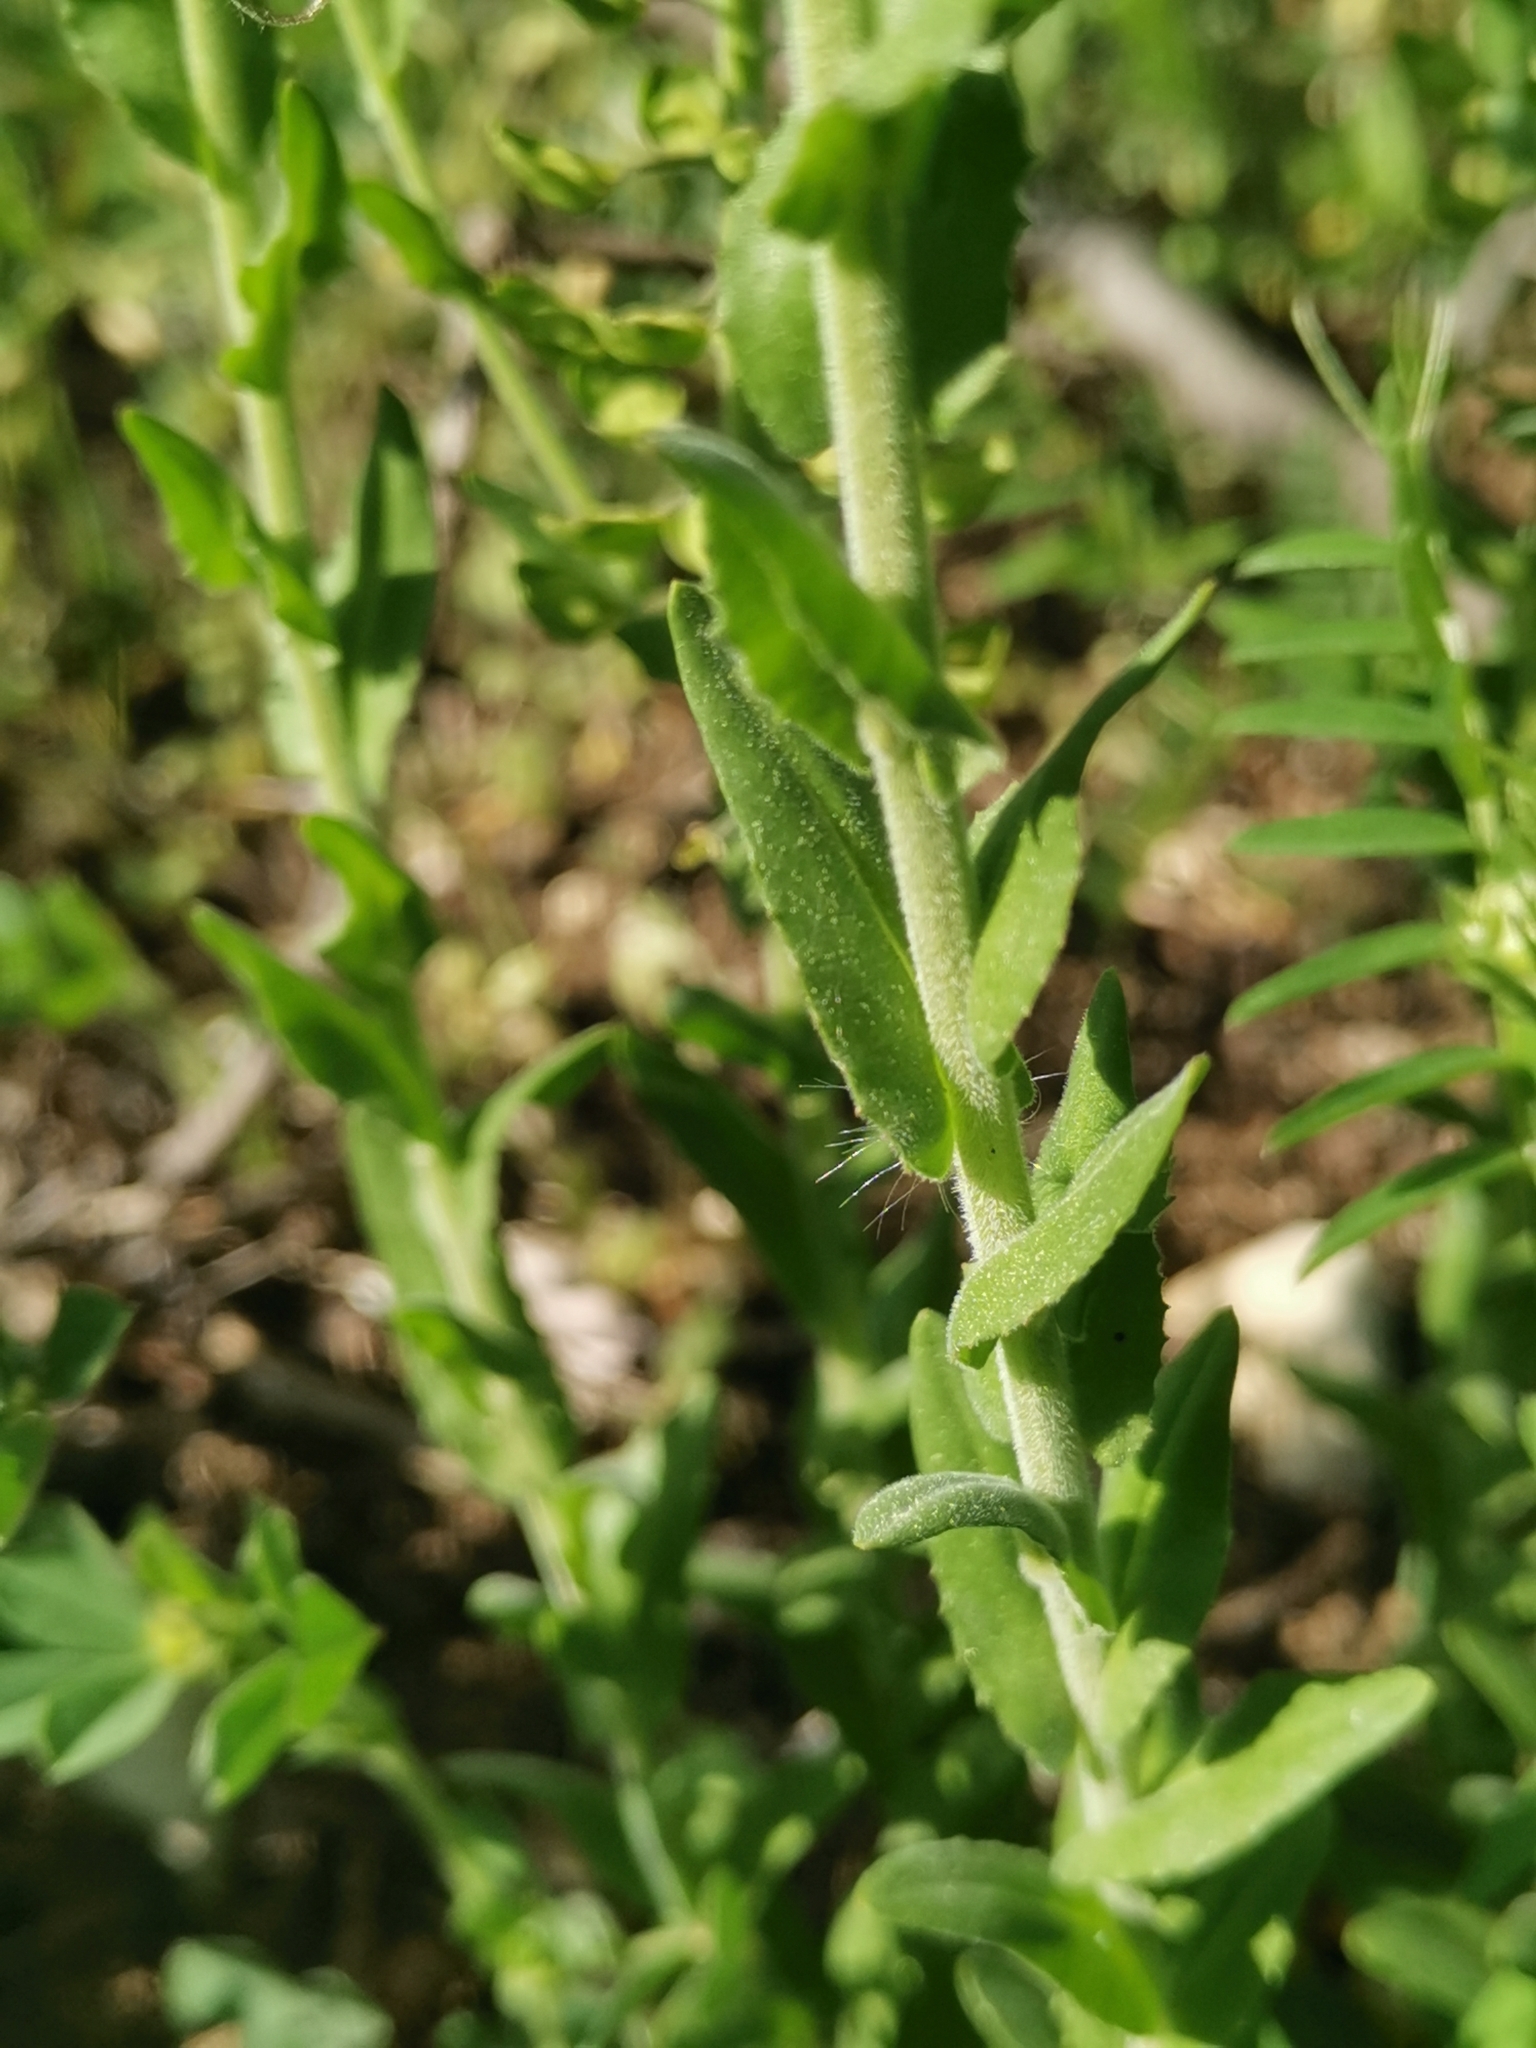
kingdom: Plantae
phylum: Tracheophyta
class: Magnoliopsida
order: Brassicales
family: Brassicaceae
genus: Lepidium
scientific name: Lepidium campestre
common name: Field pepperwort
